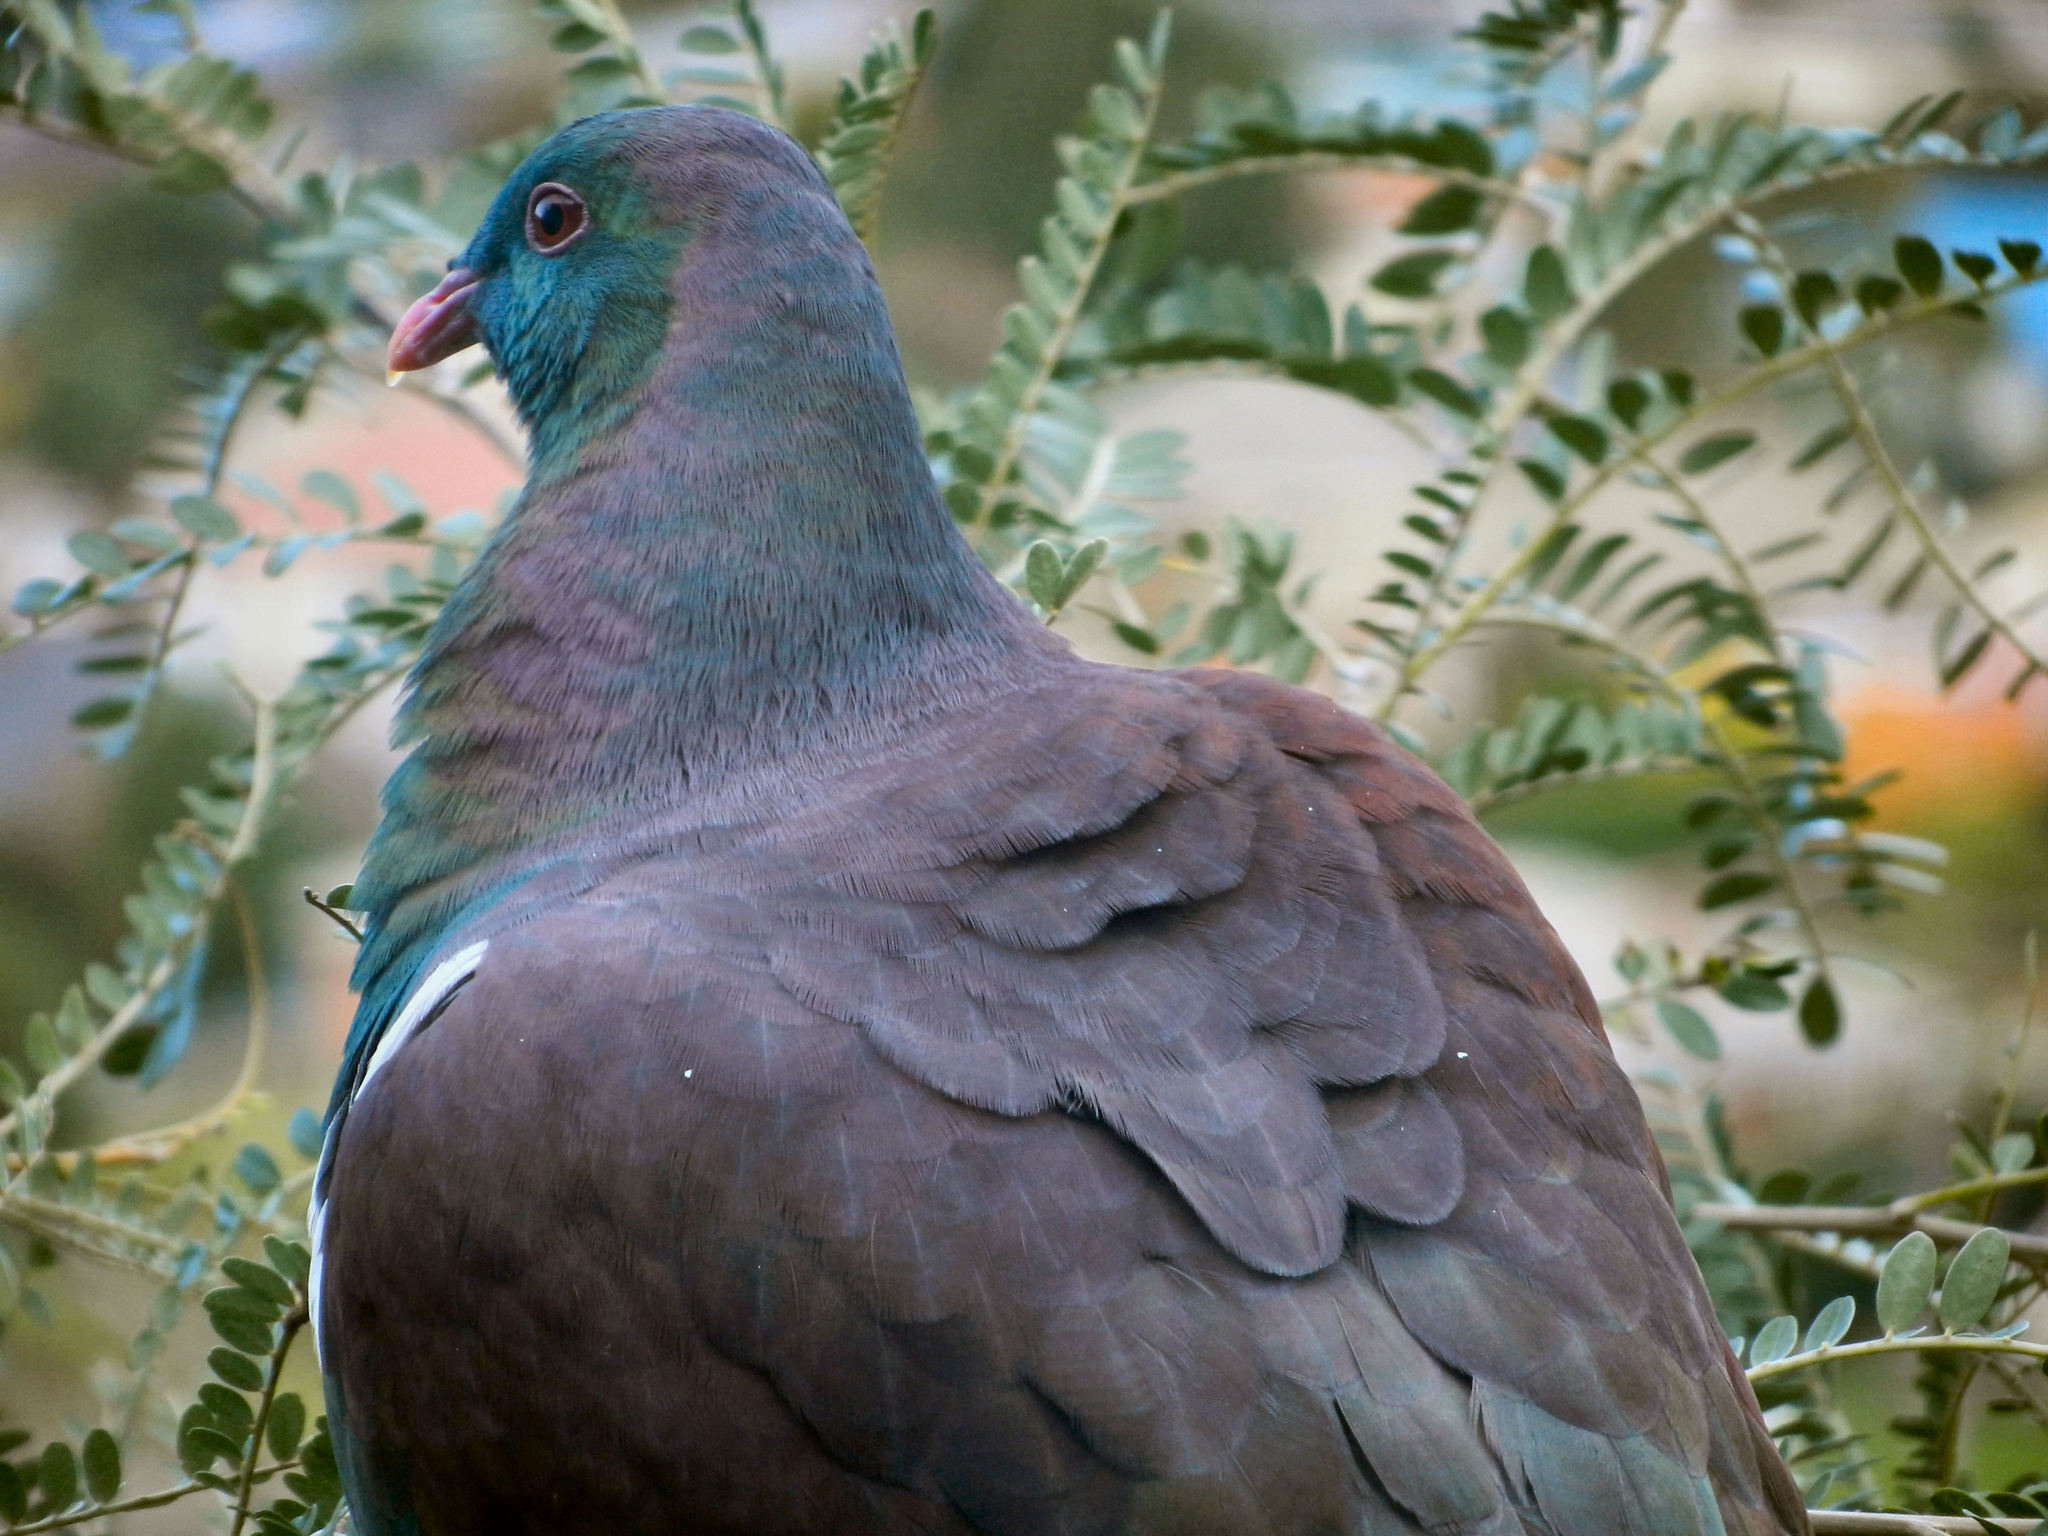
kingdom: Animalia
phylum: Chordata
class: Aves
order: Columbiformes
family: Columbidae
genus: Hemiphaga
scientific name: Hemiphaga novaeseelandiae
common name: New zealand pigeon
